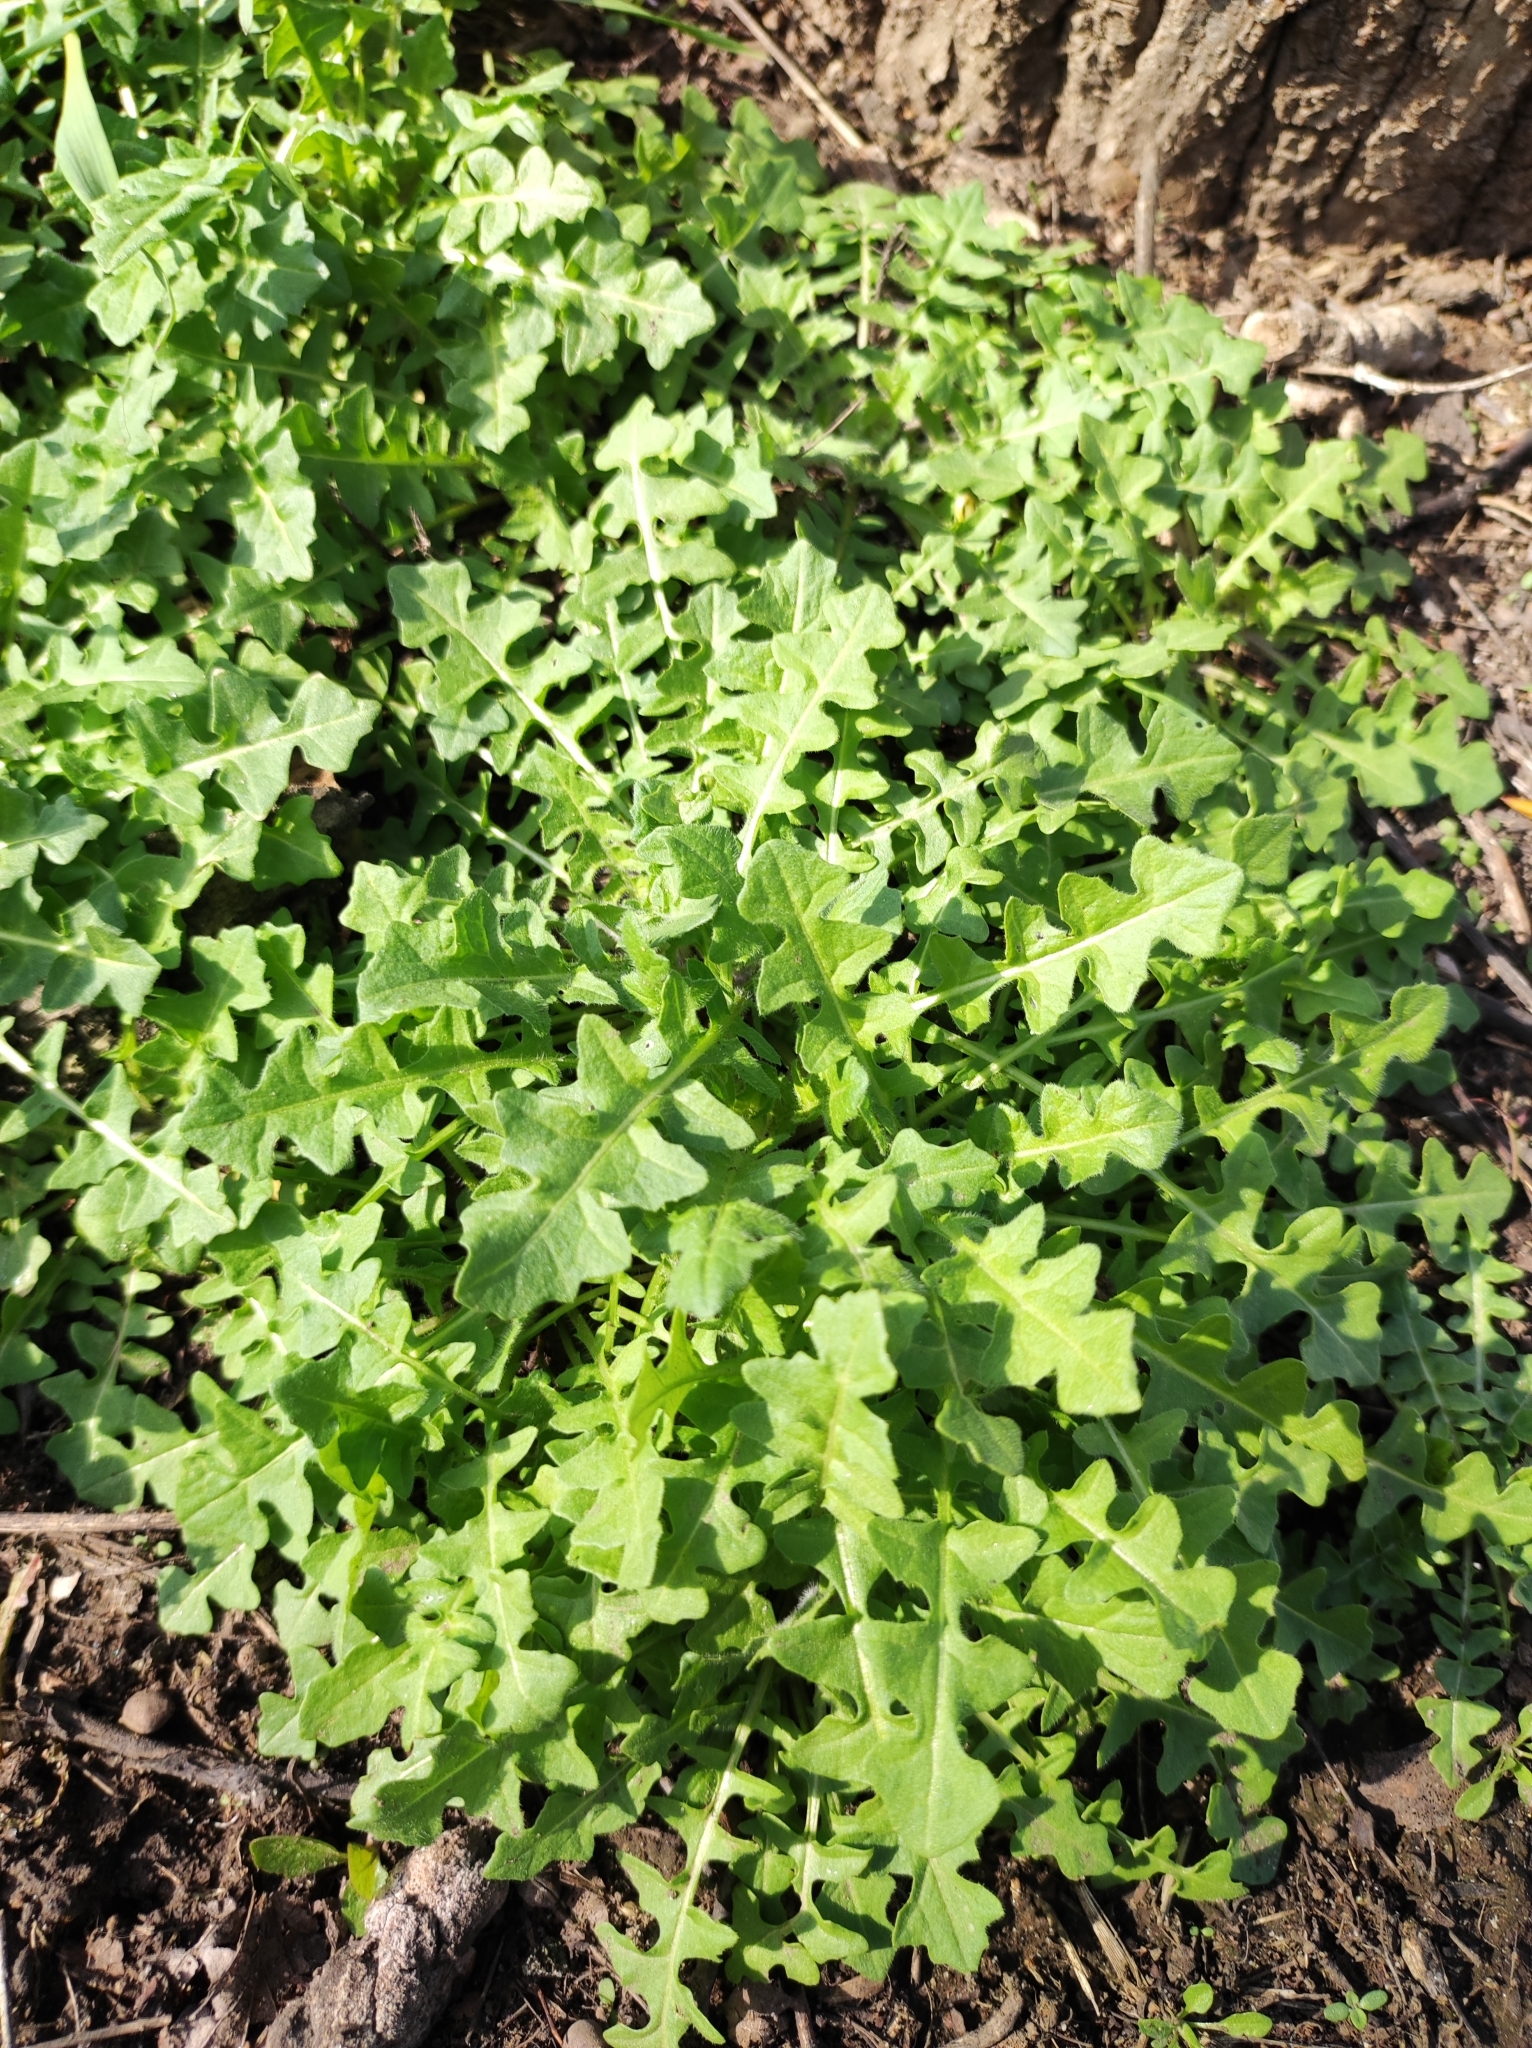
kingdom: Plantae
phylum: Tracheophyta
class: Magnoliopsida
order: Brassicales
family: Brassicaceae
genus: Sisymbrium
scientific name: Sisymbrium loeselii
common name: False london-rocket
